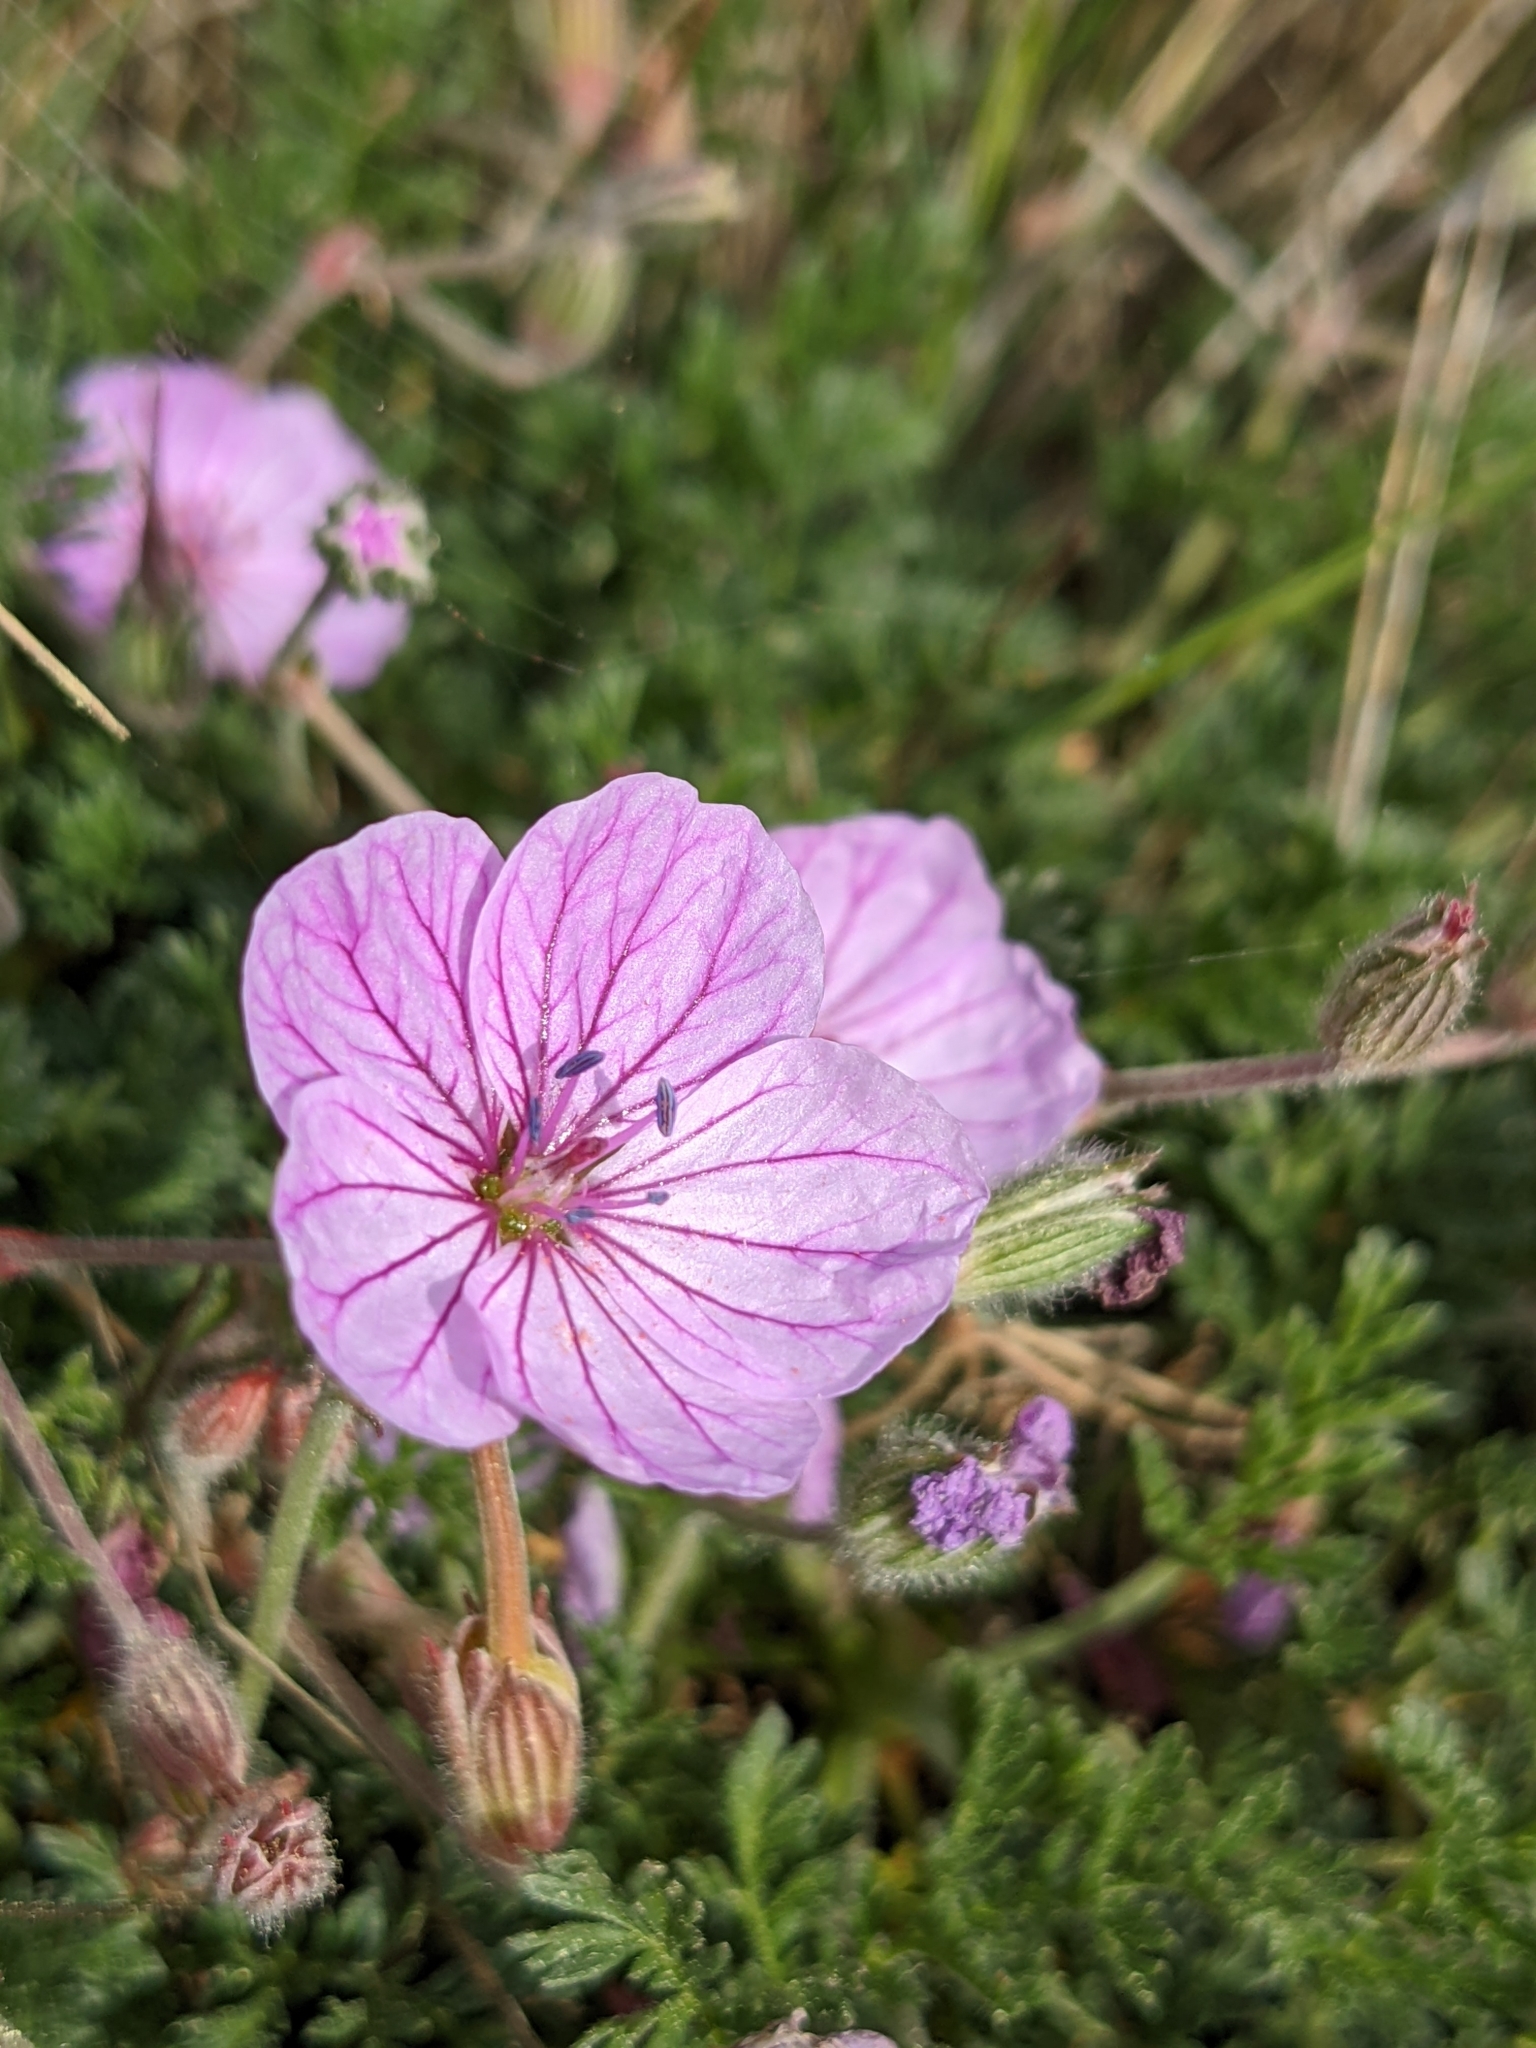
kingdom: Plantae
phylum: Tracheophyta
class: Magnoliopsida
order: Geraniales
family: Geraniaceae
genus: Erodium
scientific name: Erodium foetidum
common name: Rock stork's-bill
